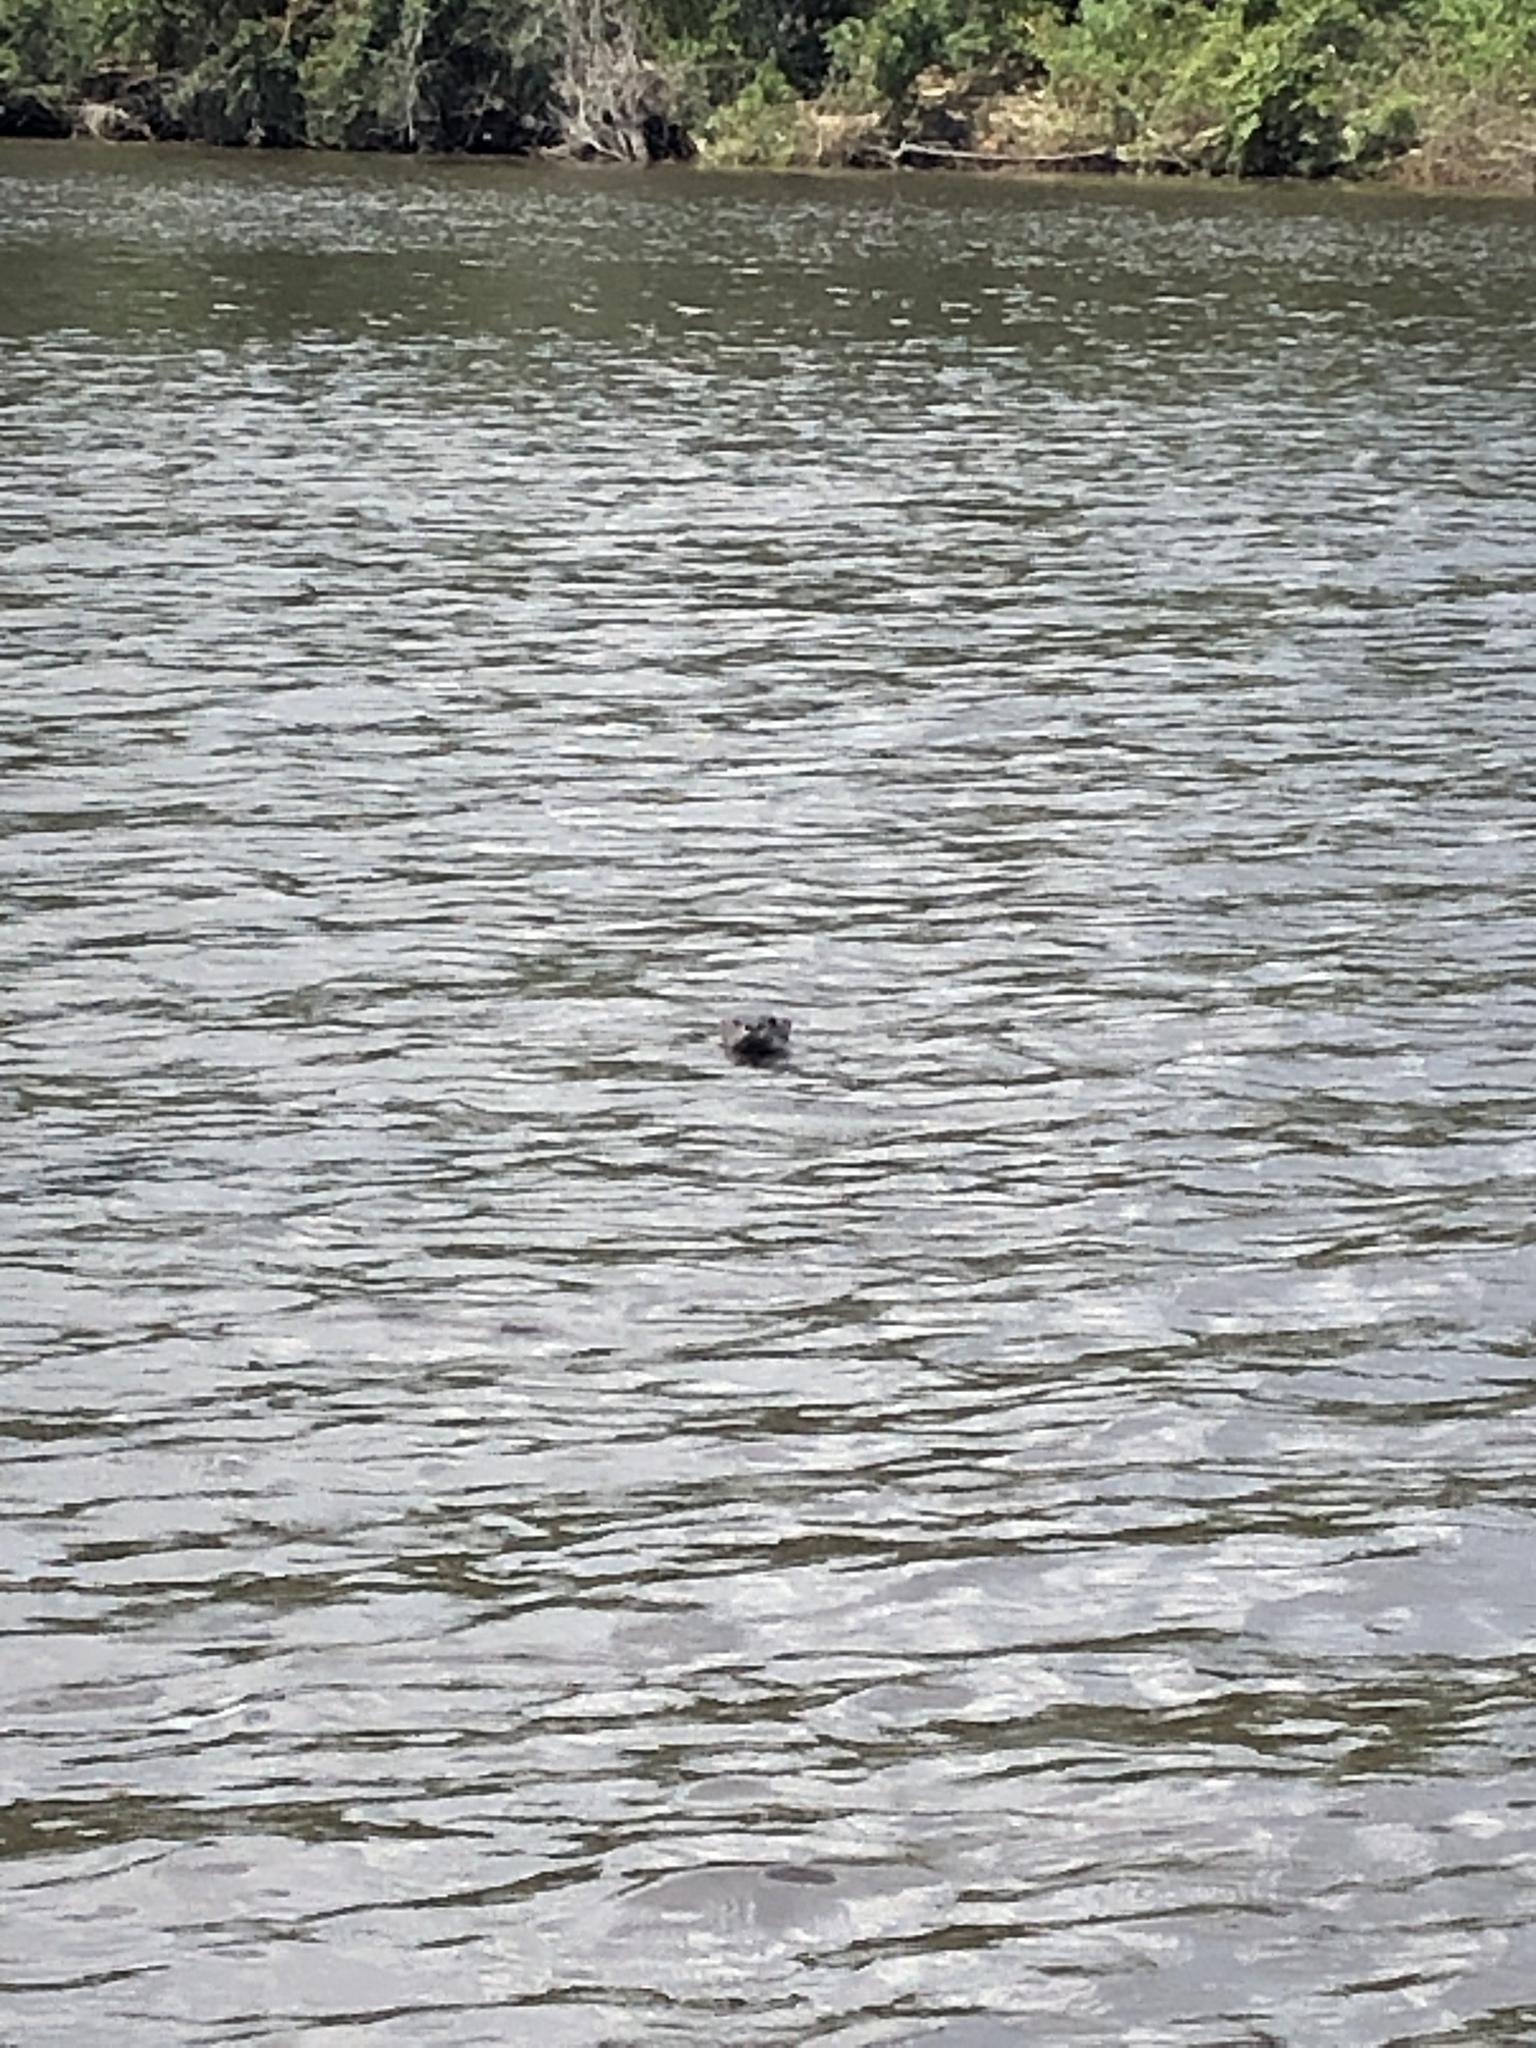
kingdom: Animalia
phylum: Chordata
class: Mammalia
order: Carnivora
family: Mustelidae
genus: Lontra
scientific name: Lontra canadensis
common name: North american river otter
